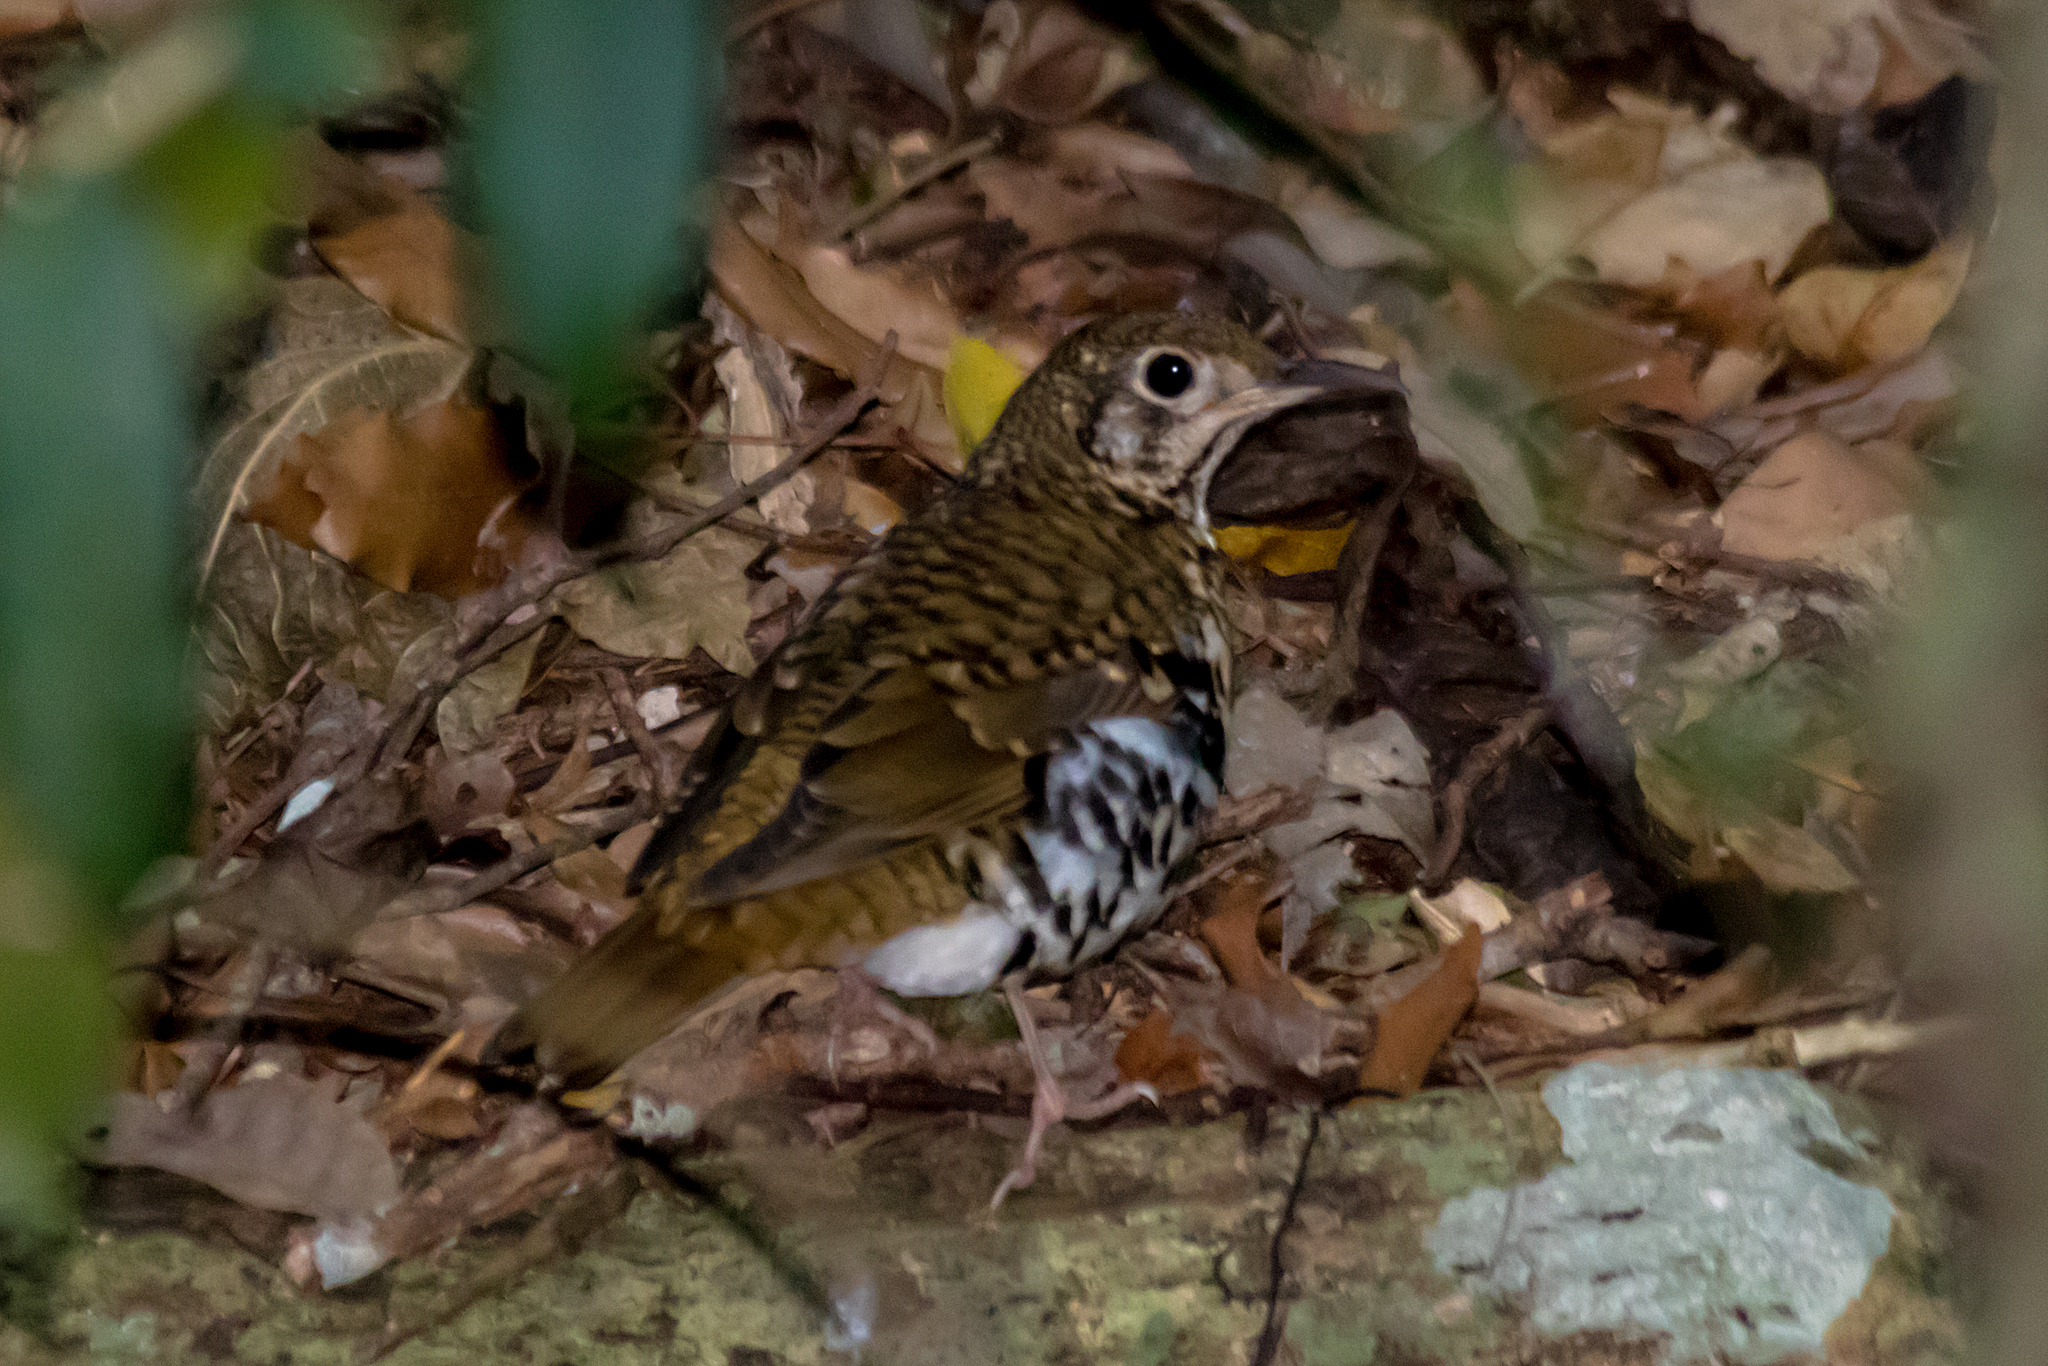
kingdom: Animalia
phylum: Chordata
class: Aves
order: Passeriformes
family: Turdidae
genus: Zoothera
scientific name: Zoothera heinei
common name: Russet-tailed thrush
